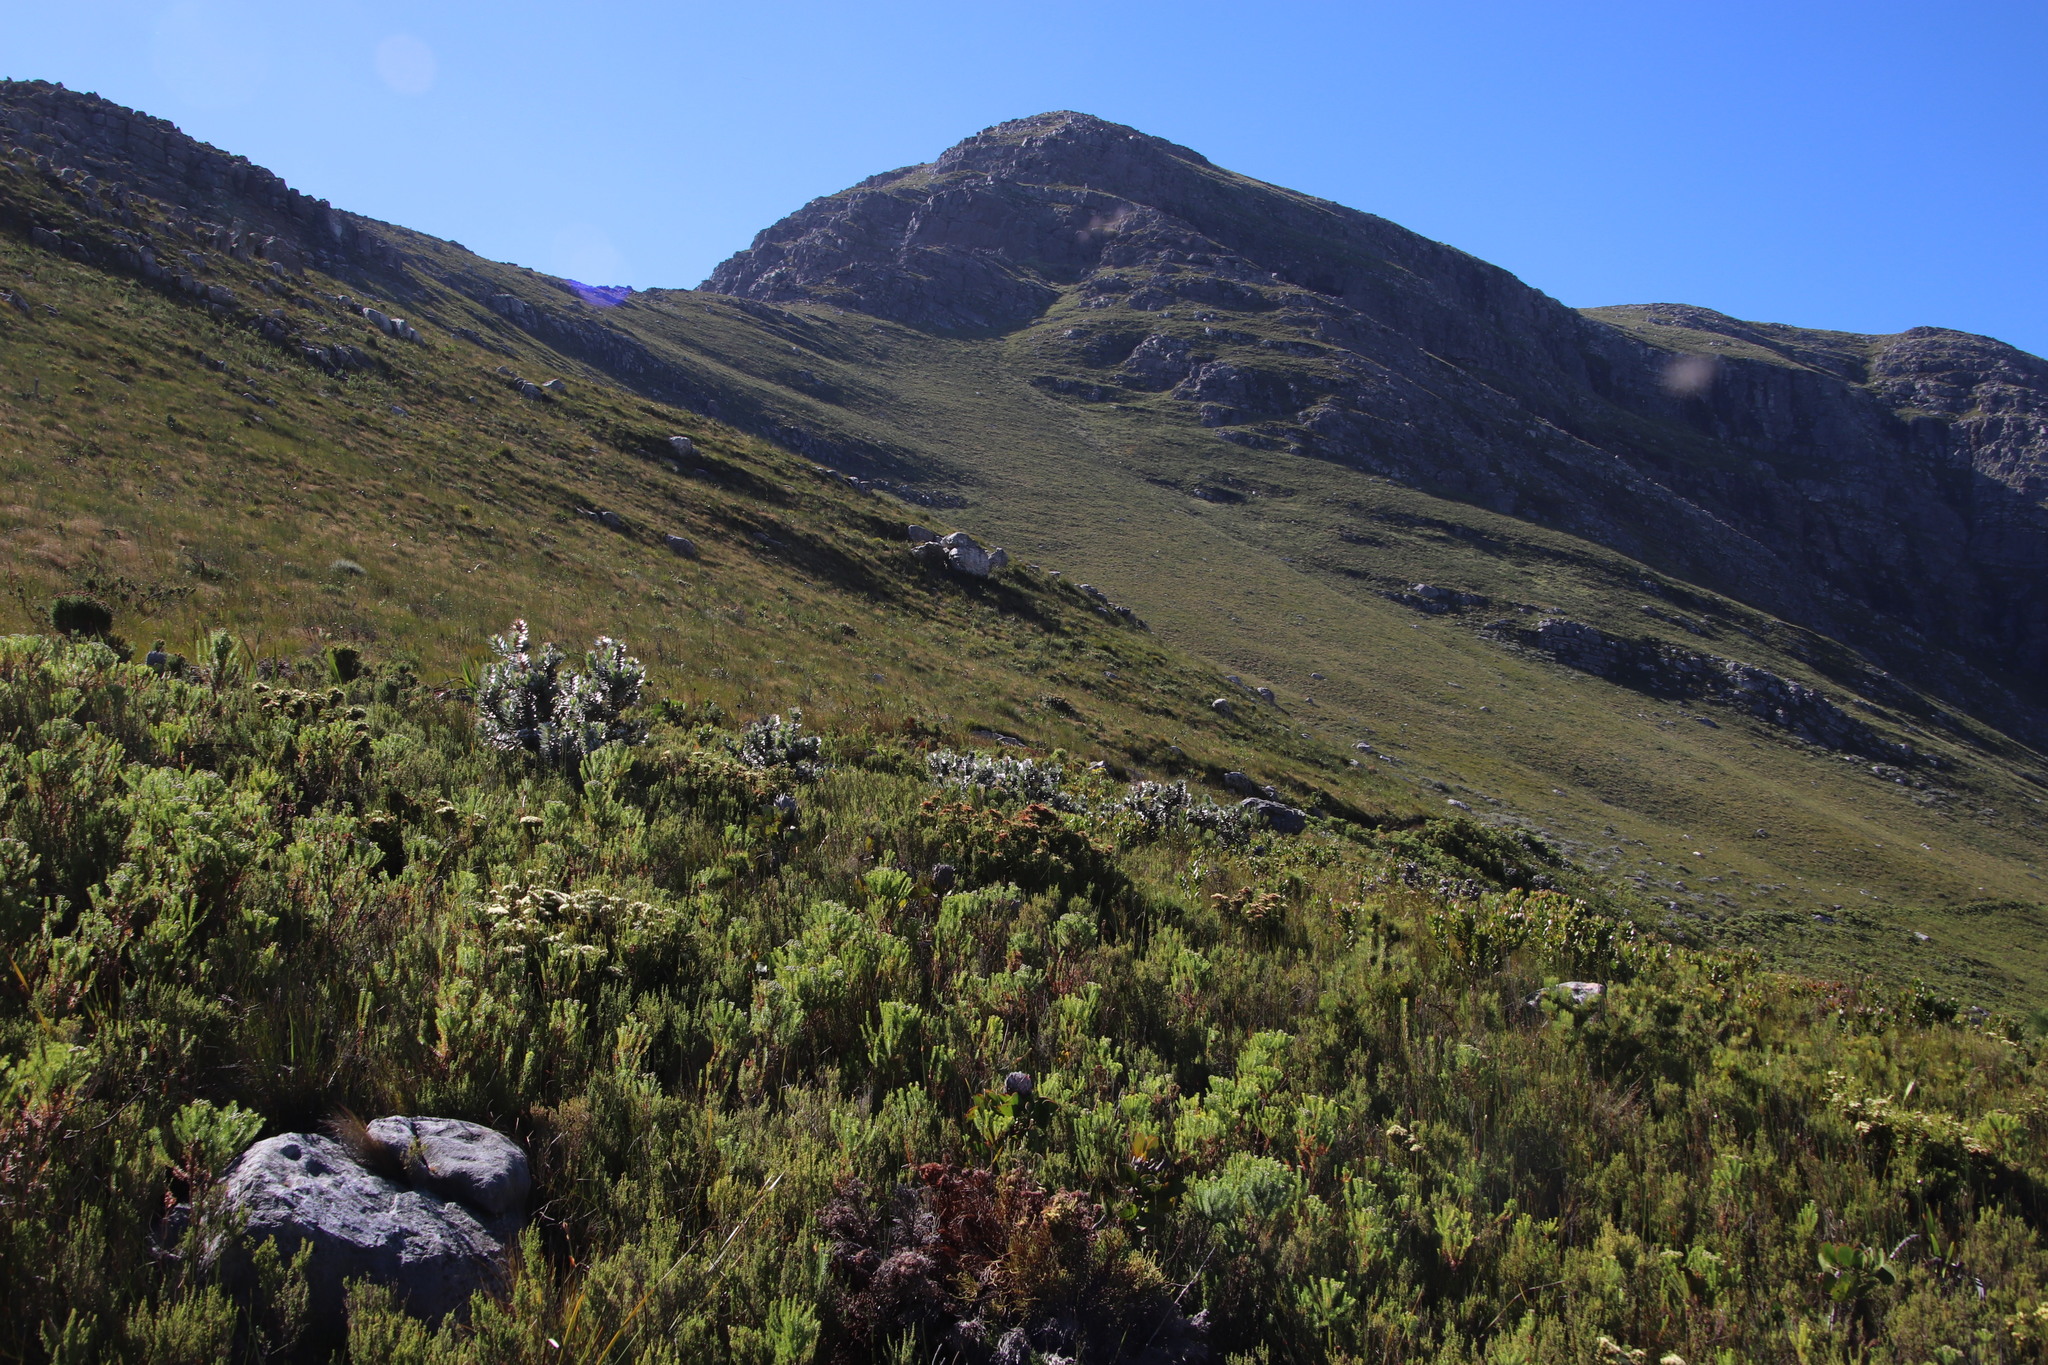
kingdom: Plantae
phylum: Tracheophyta
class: Magnoliopsida
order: Proteales
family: Proteaceae
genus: Mimetes
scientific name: Mimetes argenteus
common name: Silver pagoda
